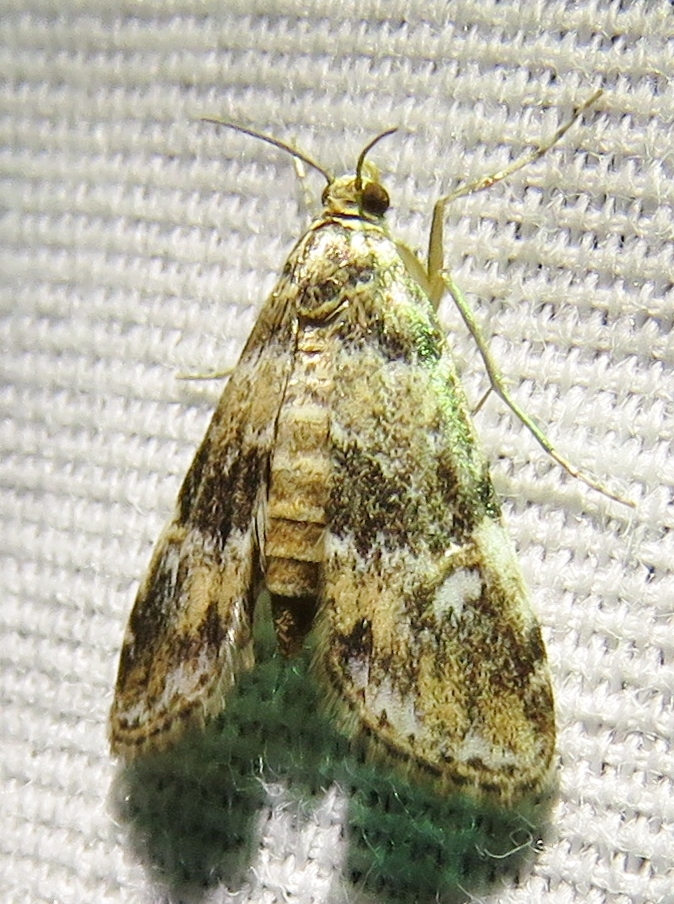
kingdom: Animalia
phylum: Arthropoda
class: Insecta
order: Lepidoptera
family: Crambidae
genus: Elophila
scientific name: Elophila obliteralis
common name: Waterlily leafcutter moth
